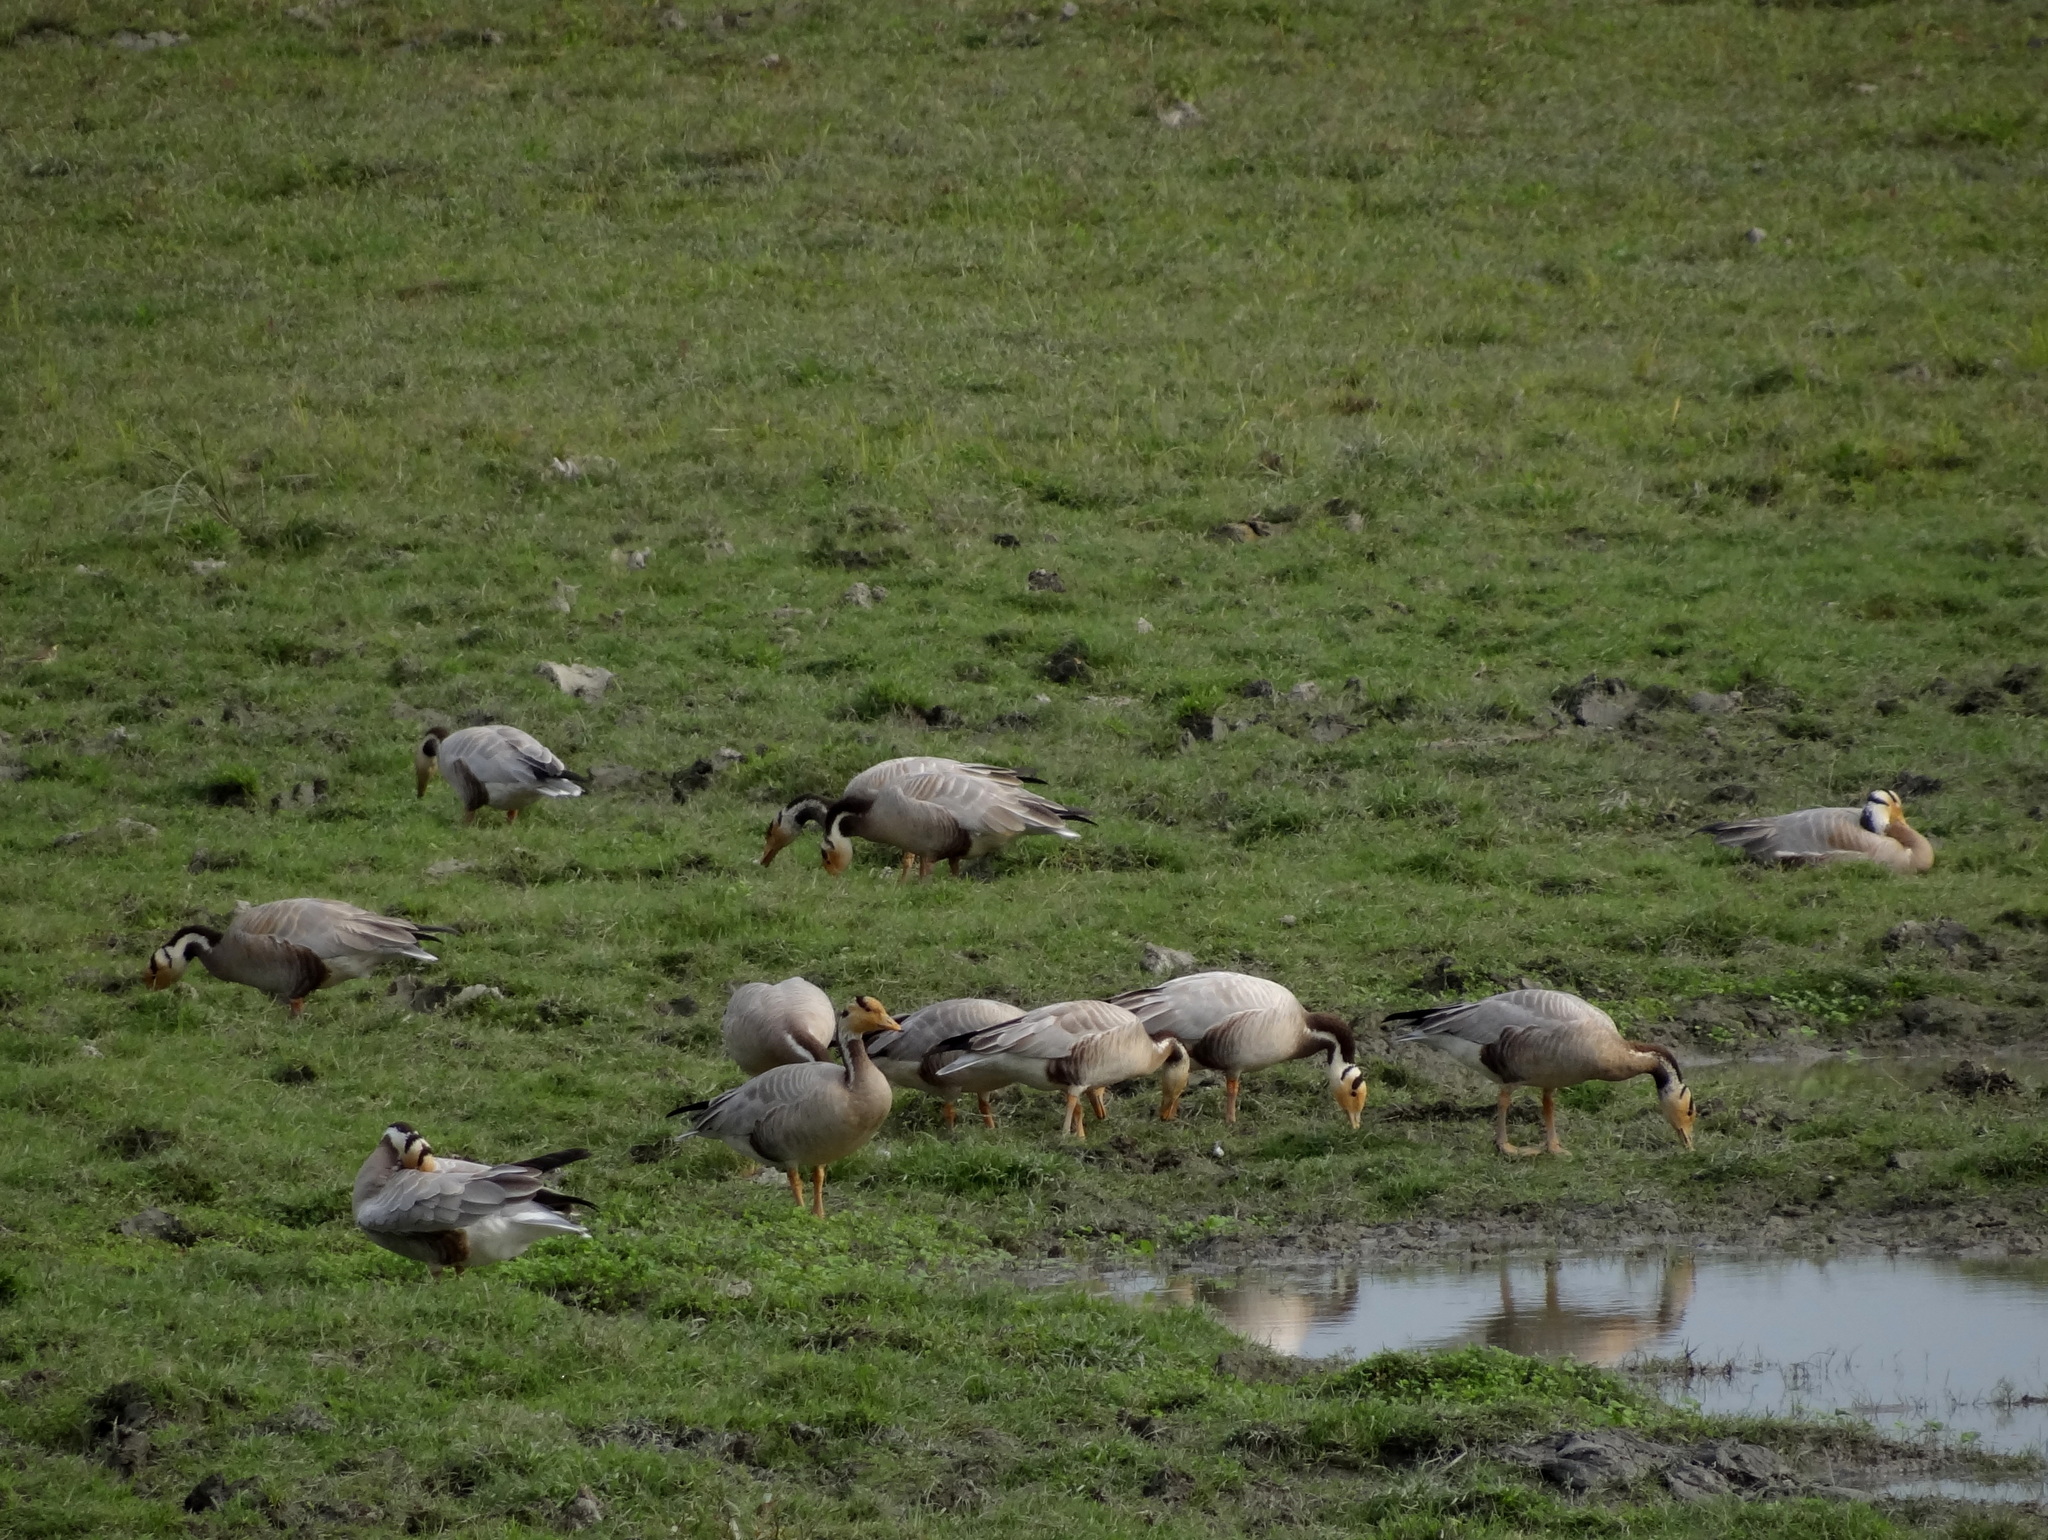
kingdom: Animalia
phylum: Chordata
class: Aves
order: Anseriformes
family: Anatidae
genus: Anser
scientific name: Anser indicus
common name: Bar-headed goose
